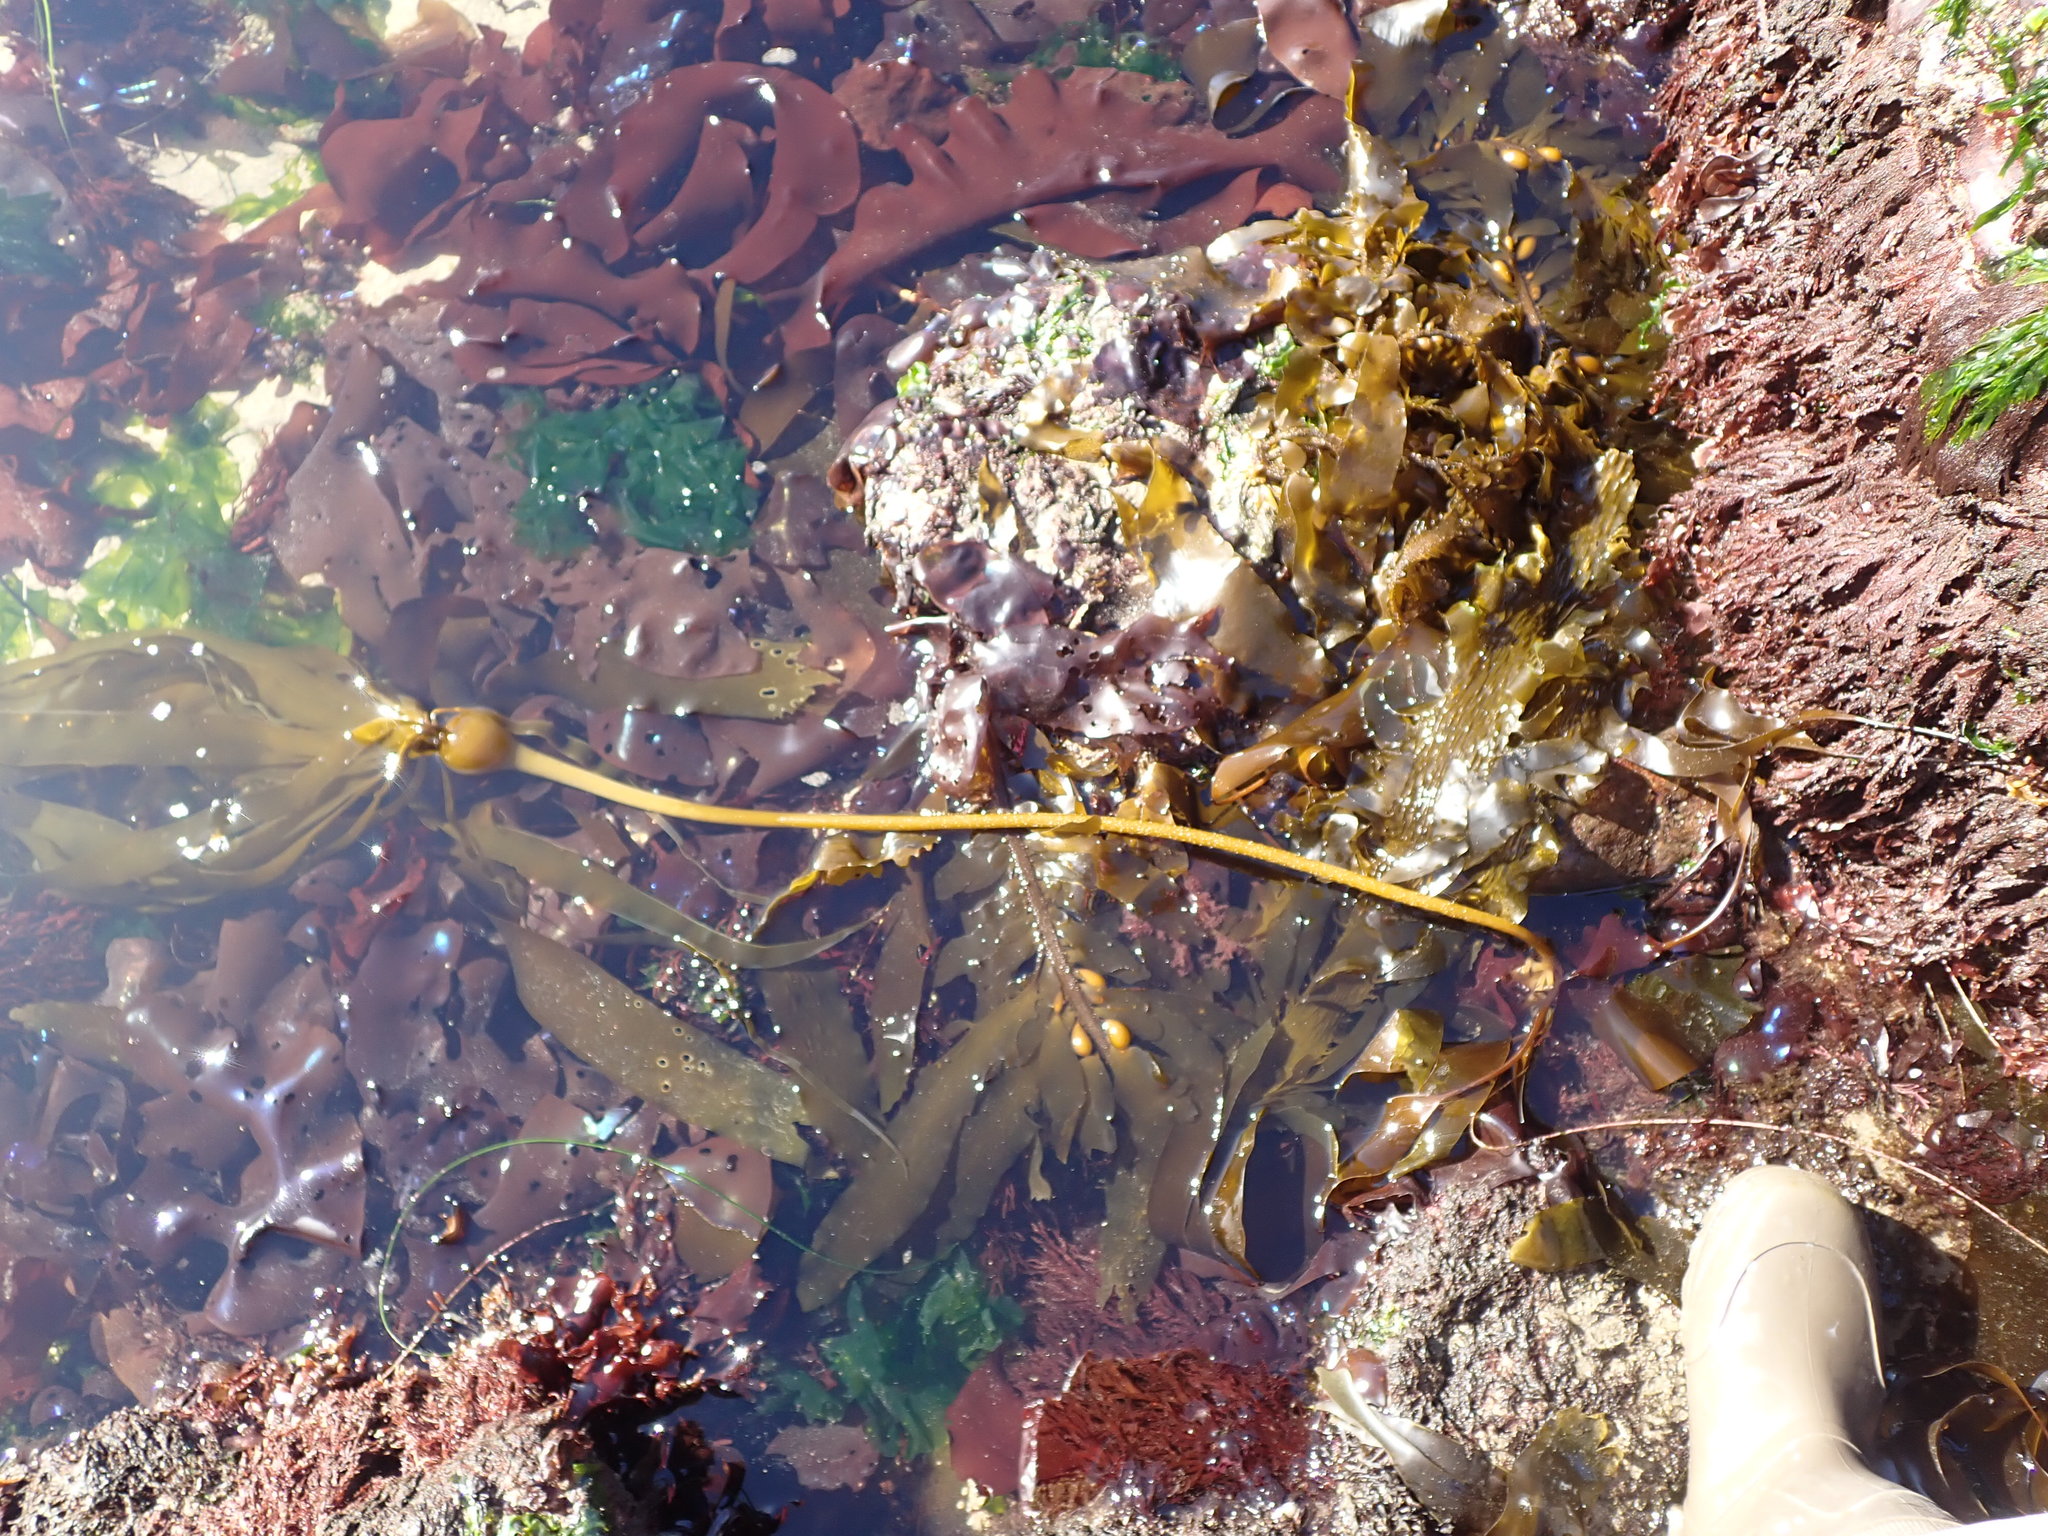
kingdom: Chromista
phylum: Ochrophyta
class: Phaeophyceae
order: Laminariales
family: Laminariaceae
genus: Nereocystis
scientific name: Nereocystis luetkeana
